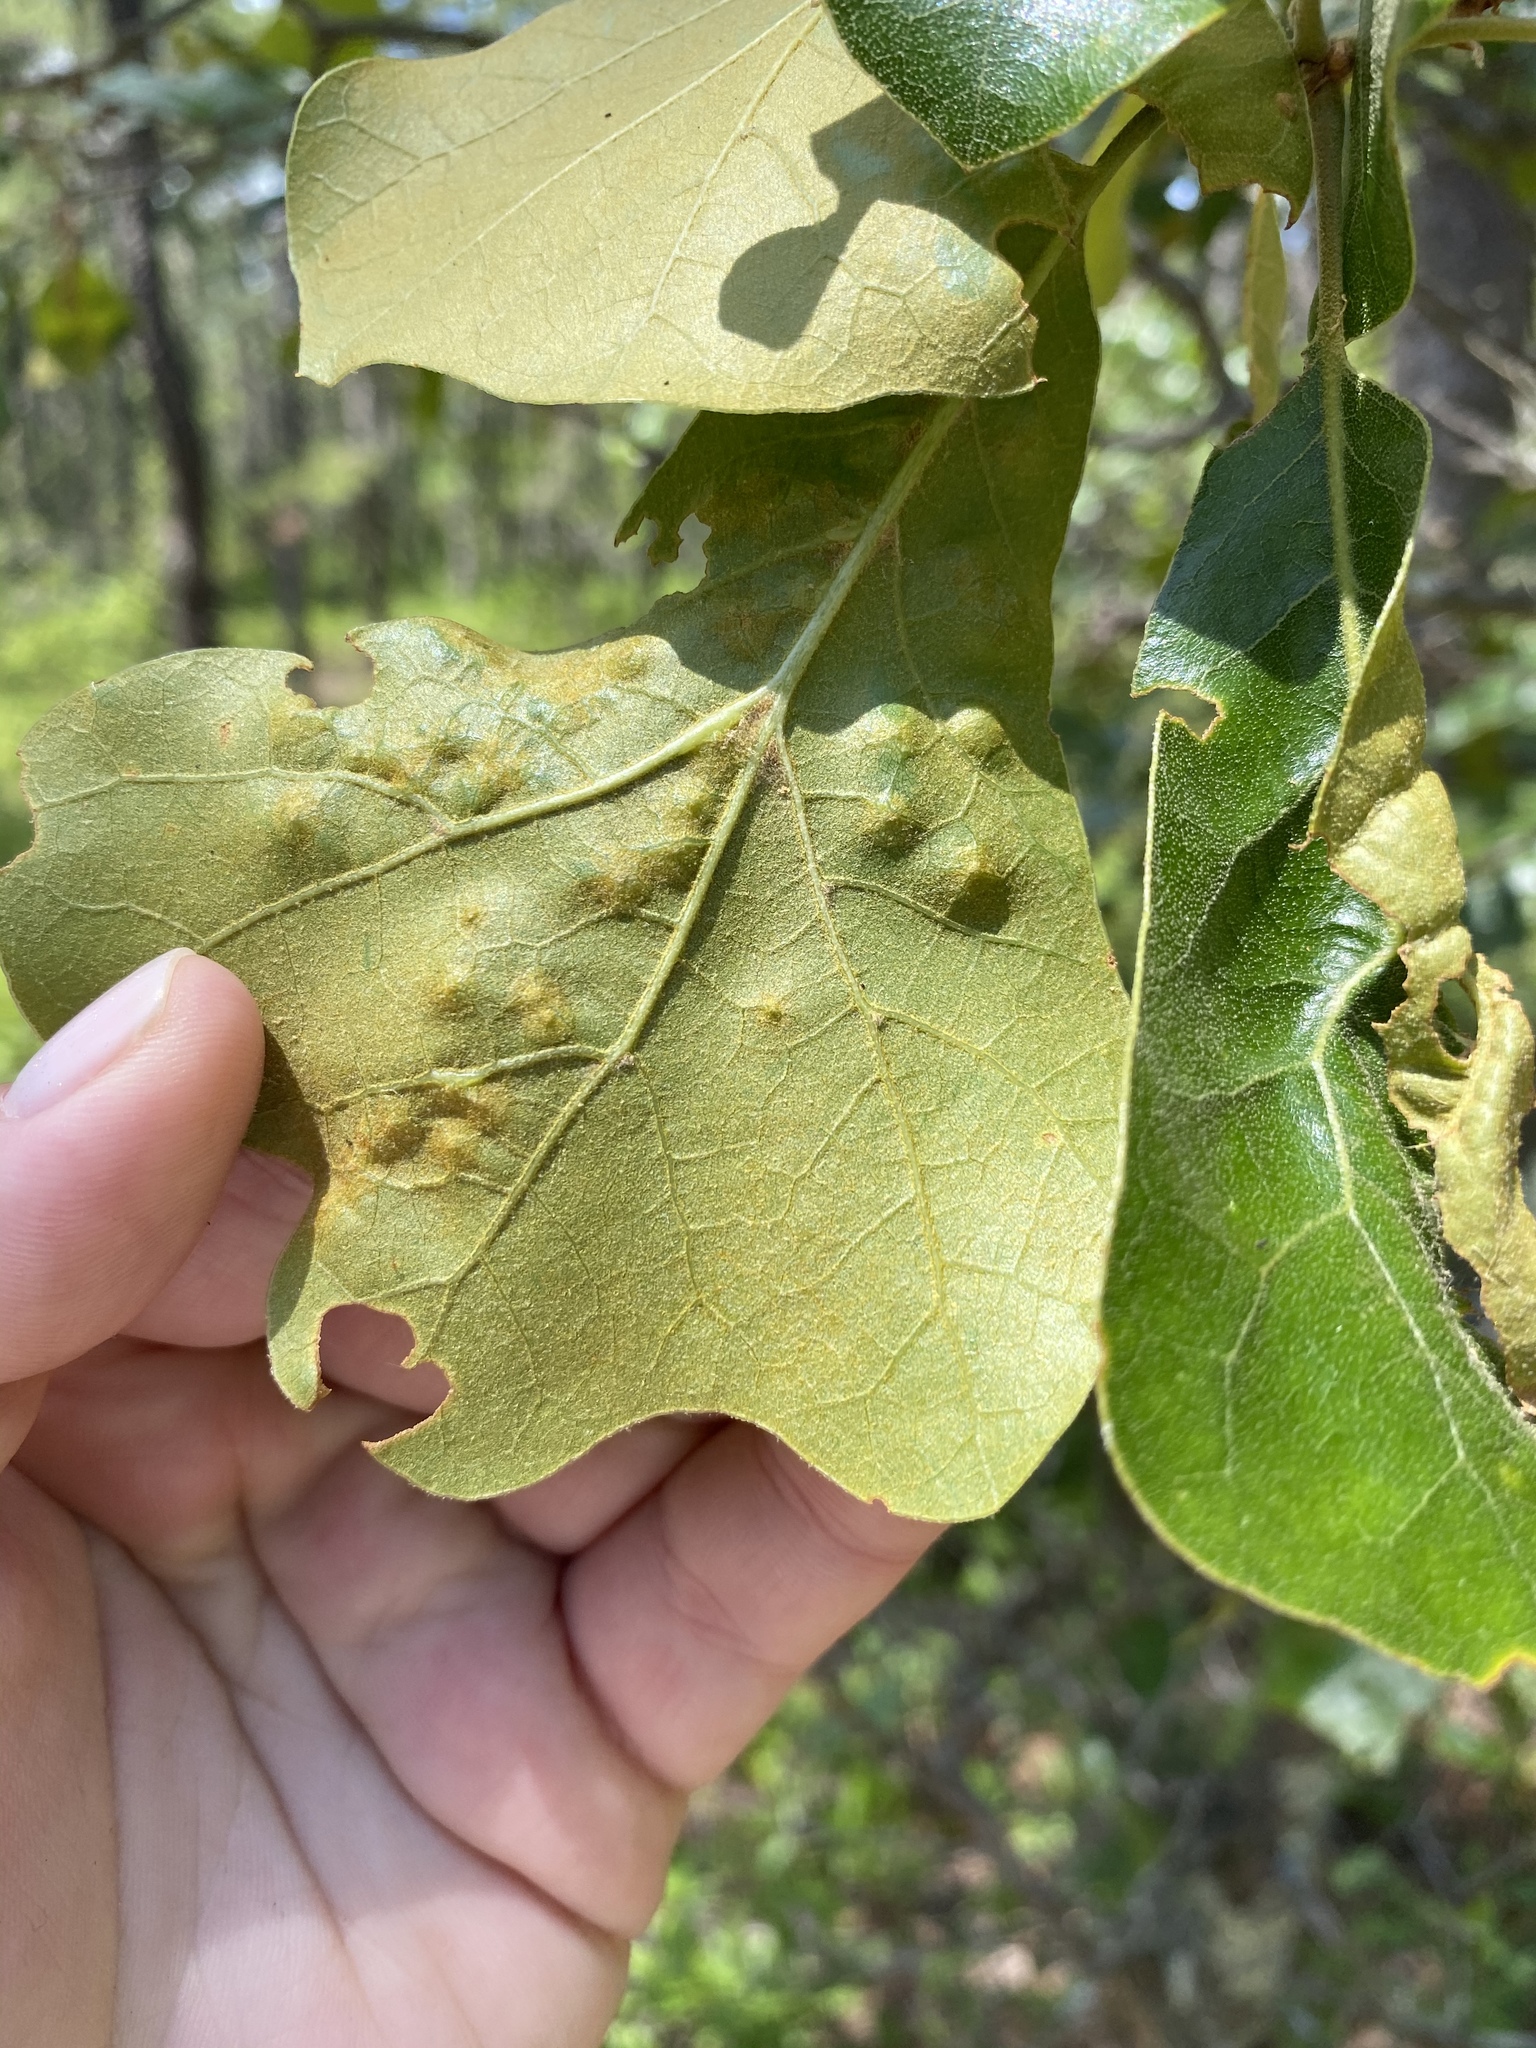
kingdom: Animalia
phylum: Arthropoda
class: Insecta
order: Diptera
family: Cecidomyiidae
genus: Polystepha
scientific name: Polystepha pilulae
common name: Oak leaf gall midge
